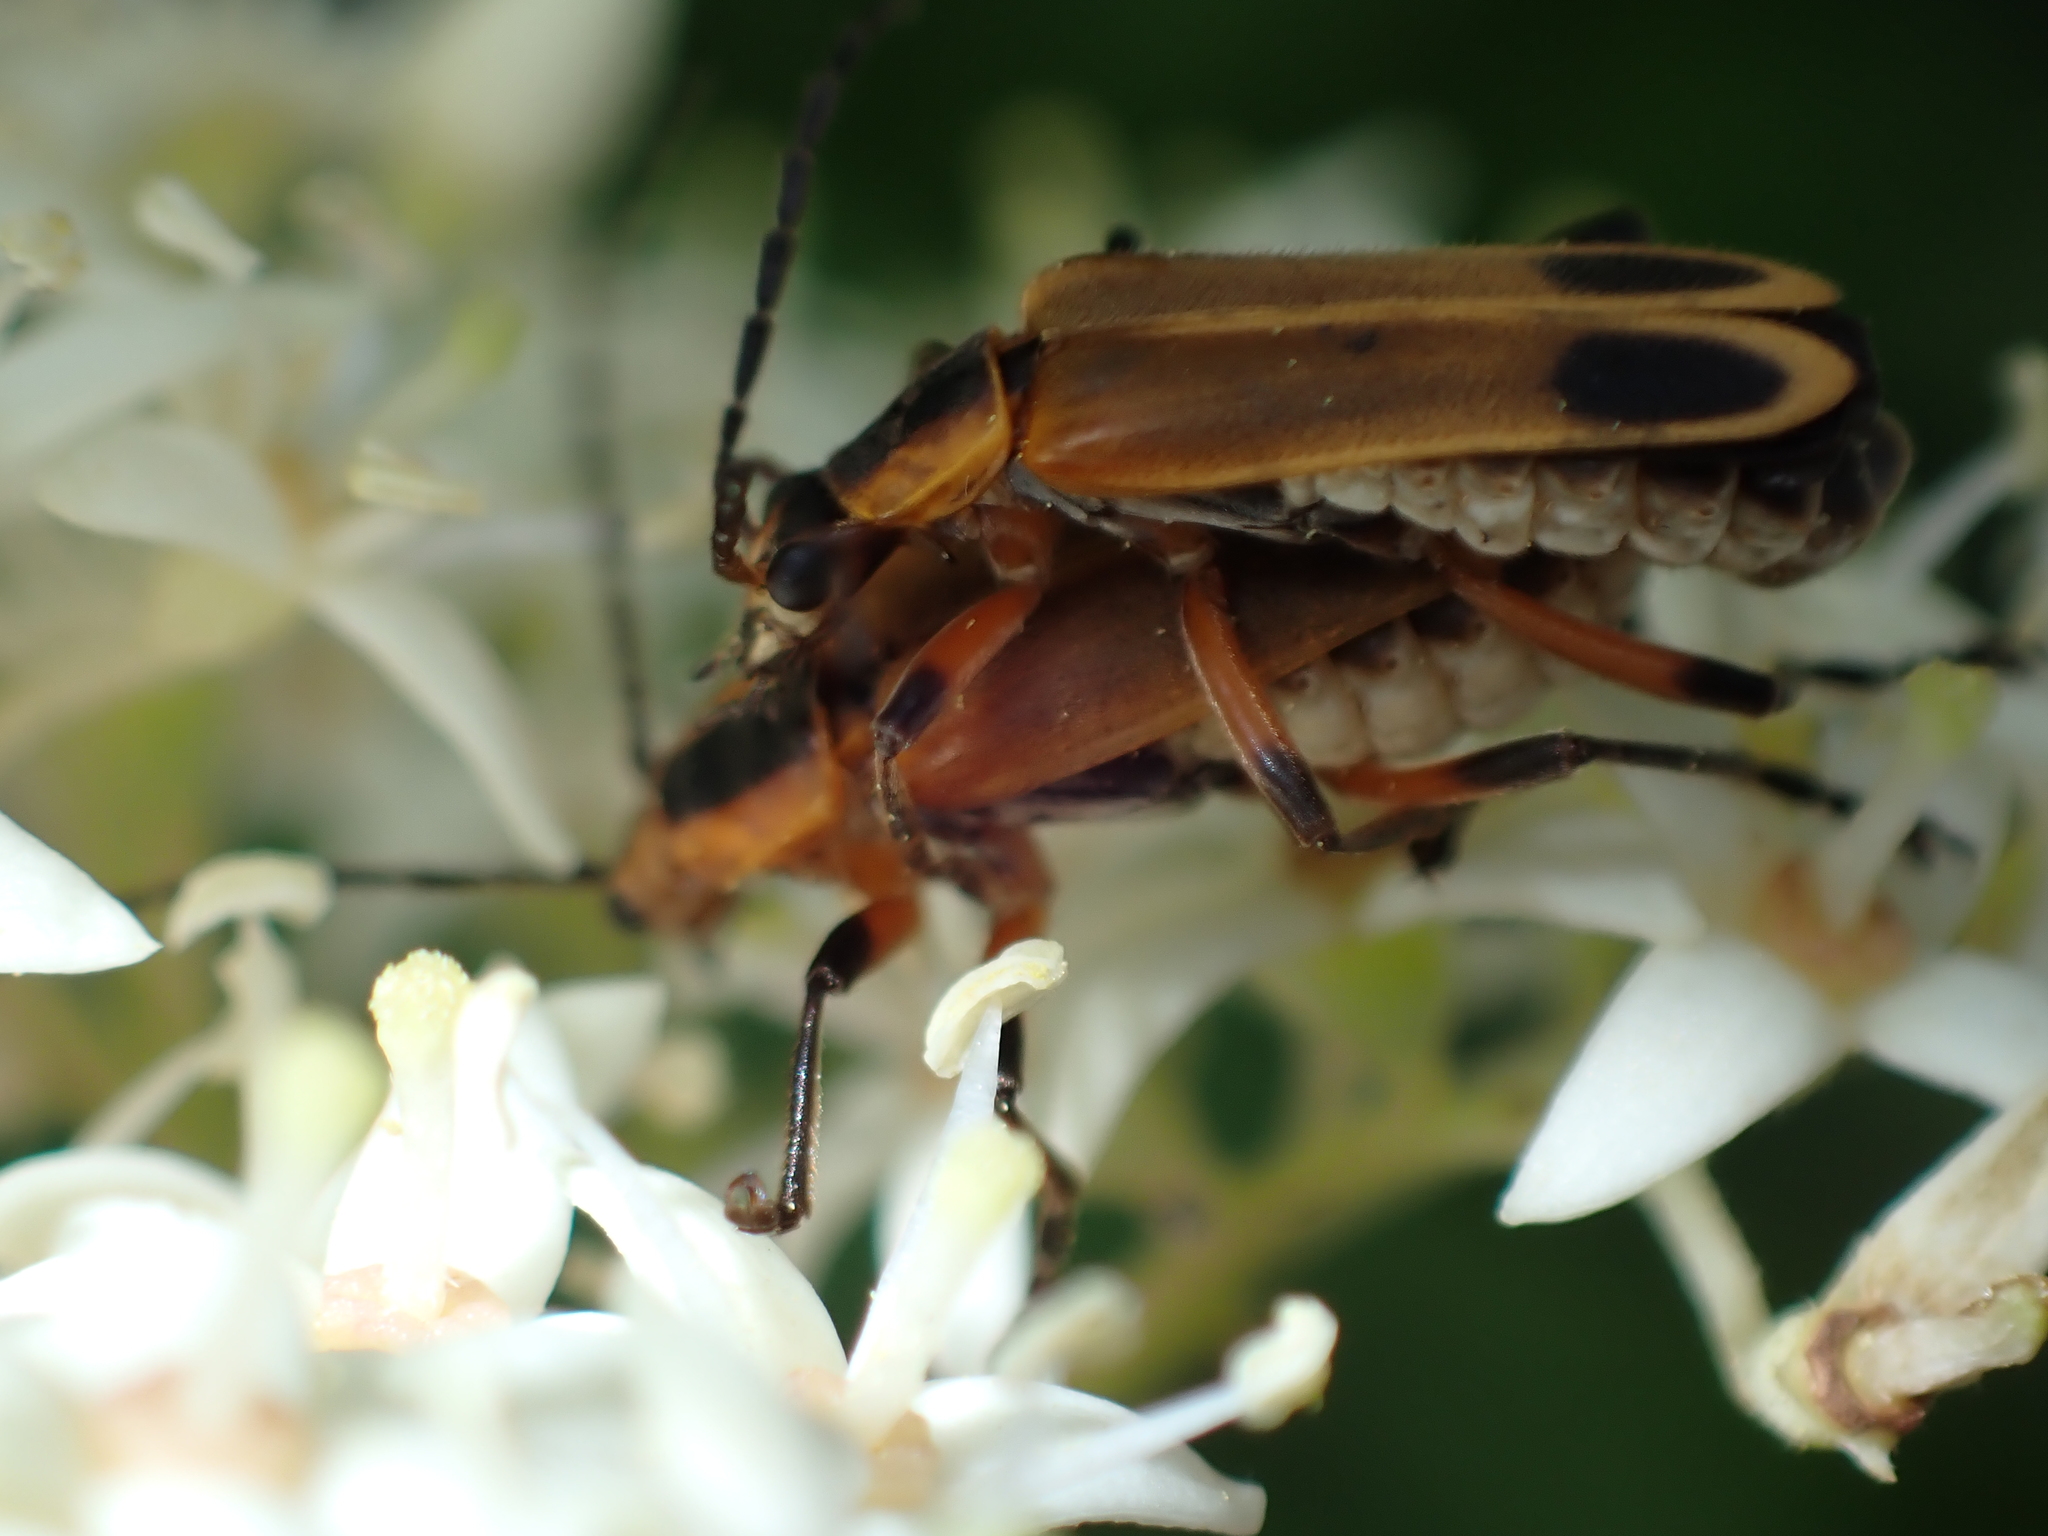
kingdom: Animalia
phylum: Arthropoda
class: Insecta
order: Coleoptera
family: Cantharidae
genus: Chauliognathus
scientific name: Chauliognathus marginatus
